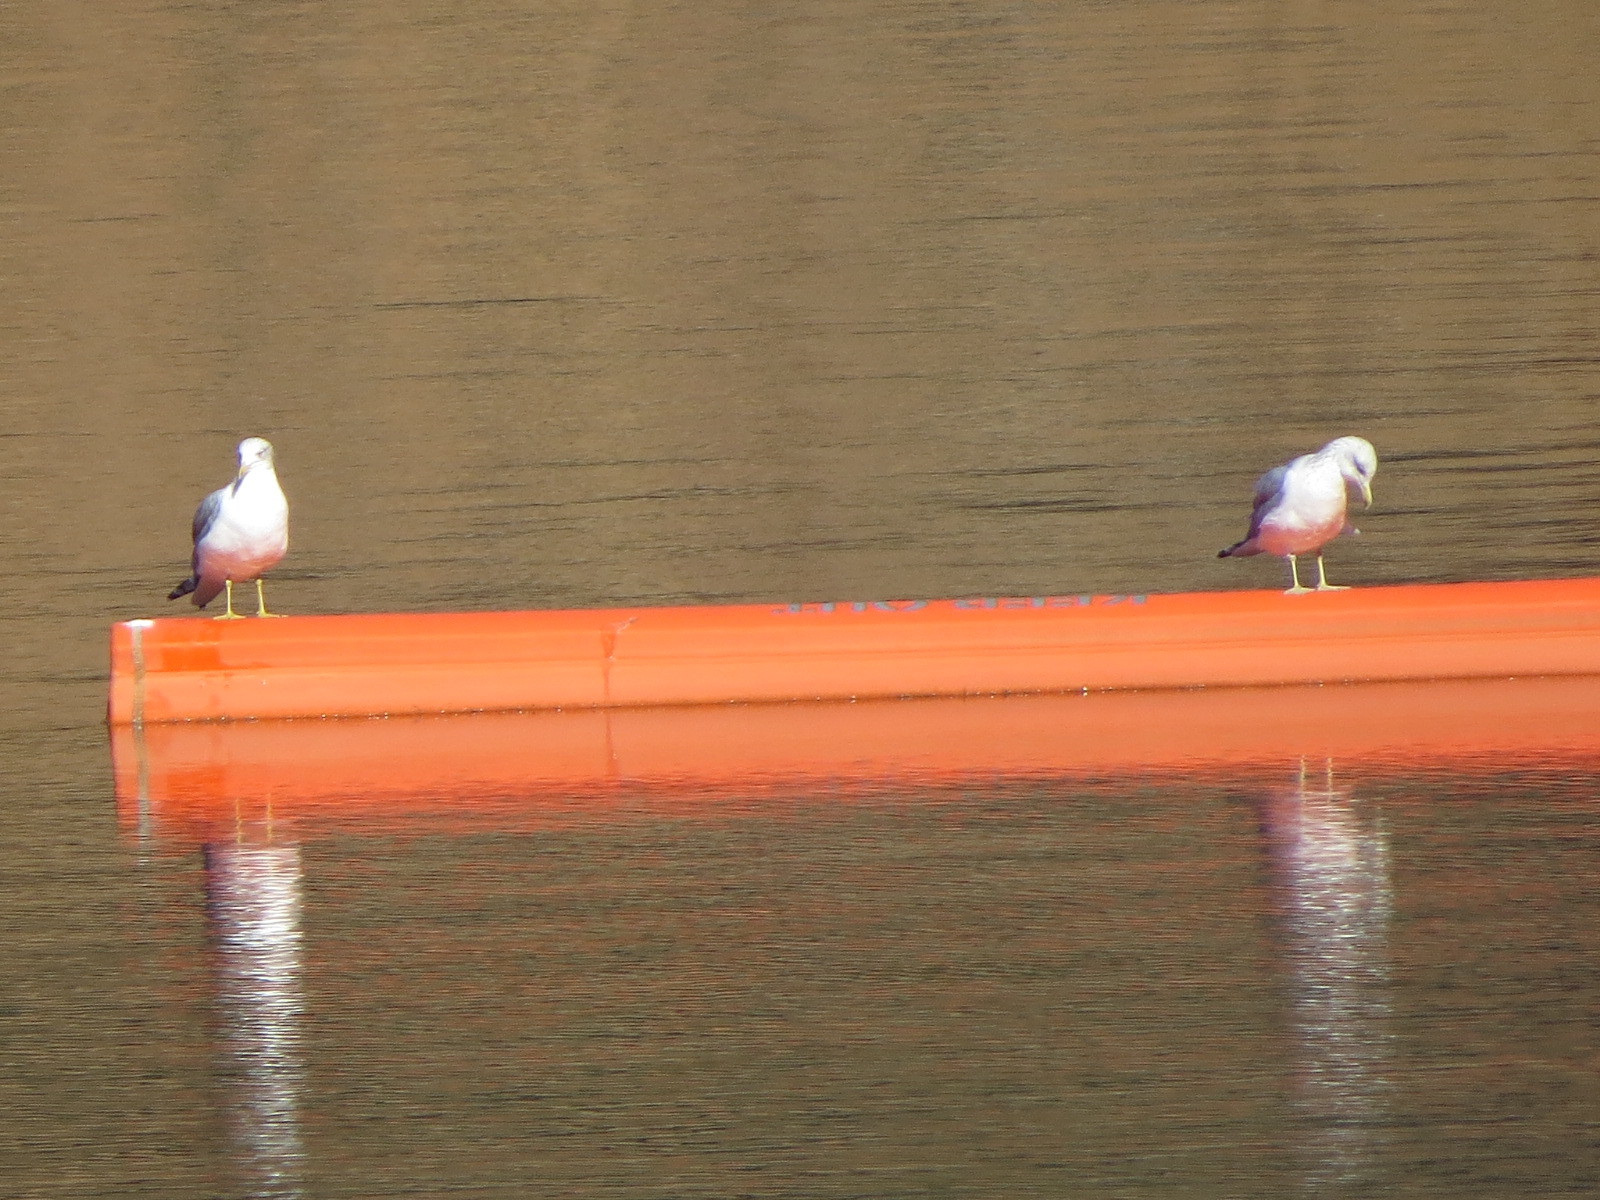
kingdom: Animalia
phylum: Chordata
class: Aves
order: Charadriiformes
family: Laridae
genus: Larus
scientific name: Larus californicus
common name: California gull
